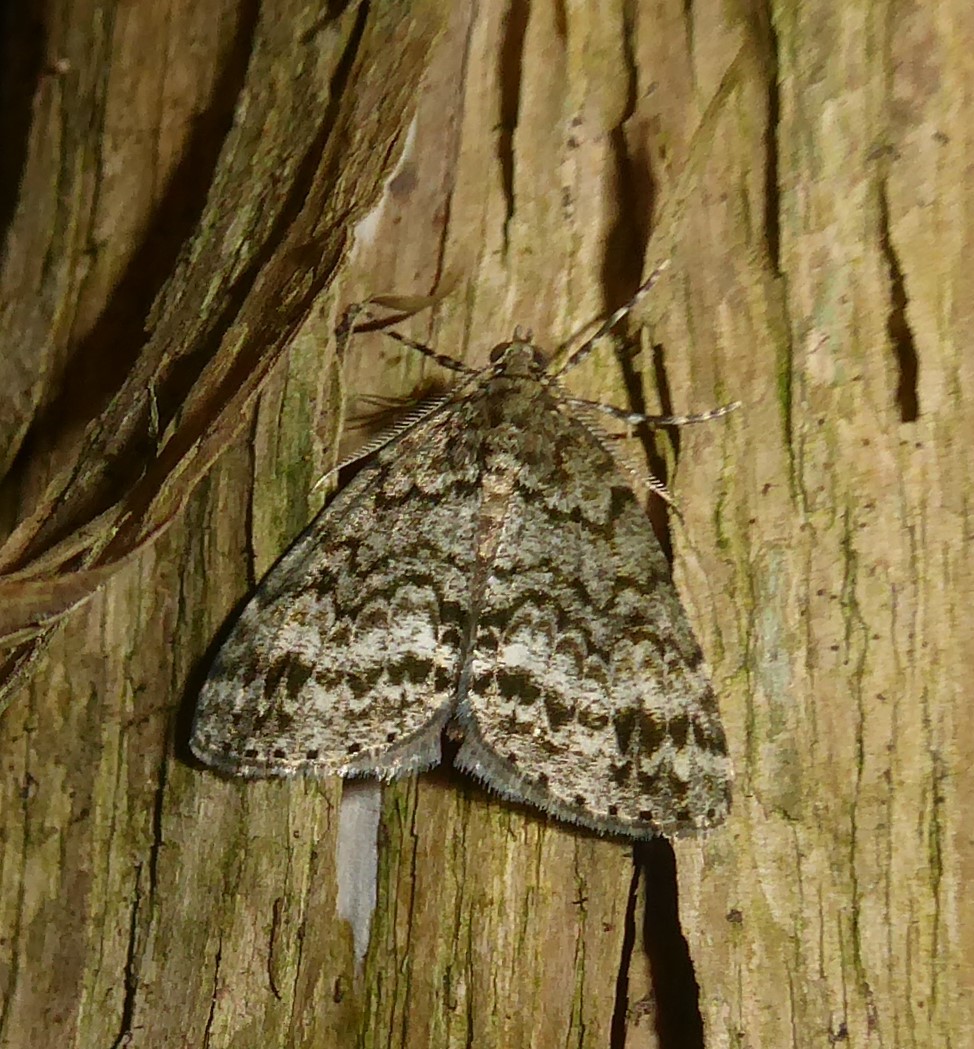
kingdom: Animalia
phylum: Arthropoda
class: Insecta
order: Lepidoptera
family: Geometridae
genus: Pseudocoremia
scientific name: Pseudocoremia indistincta
